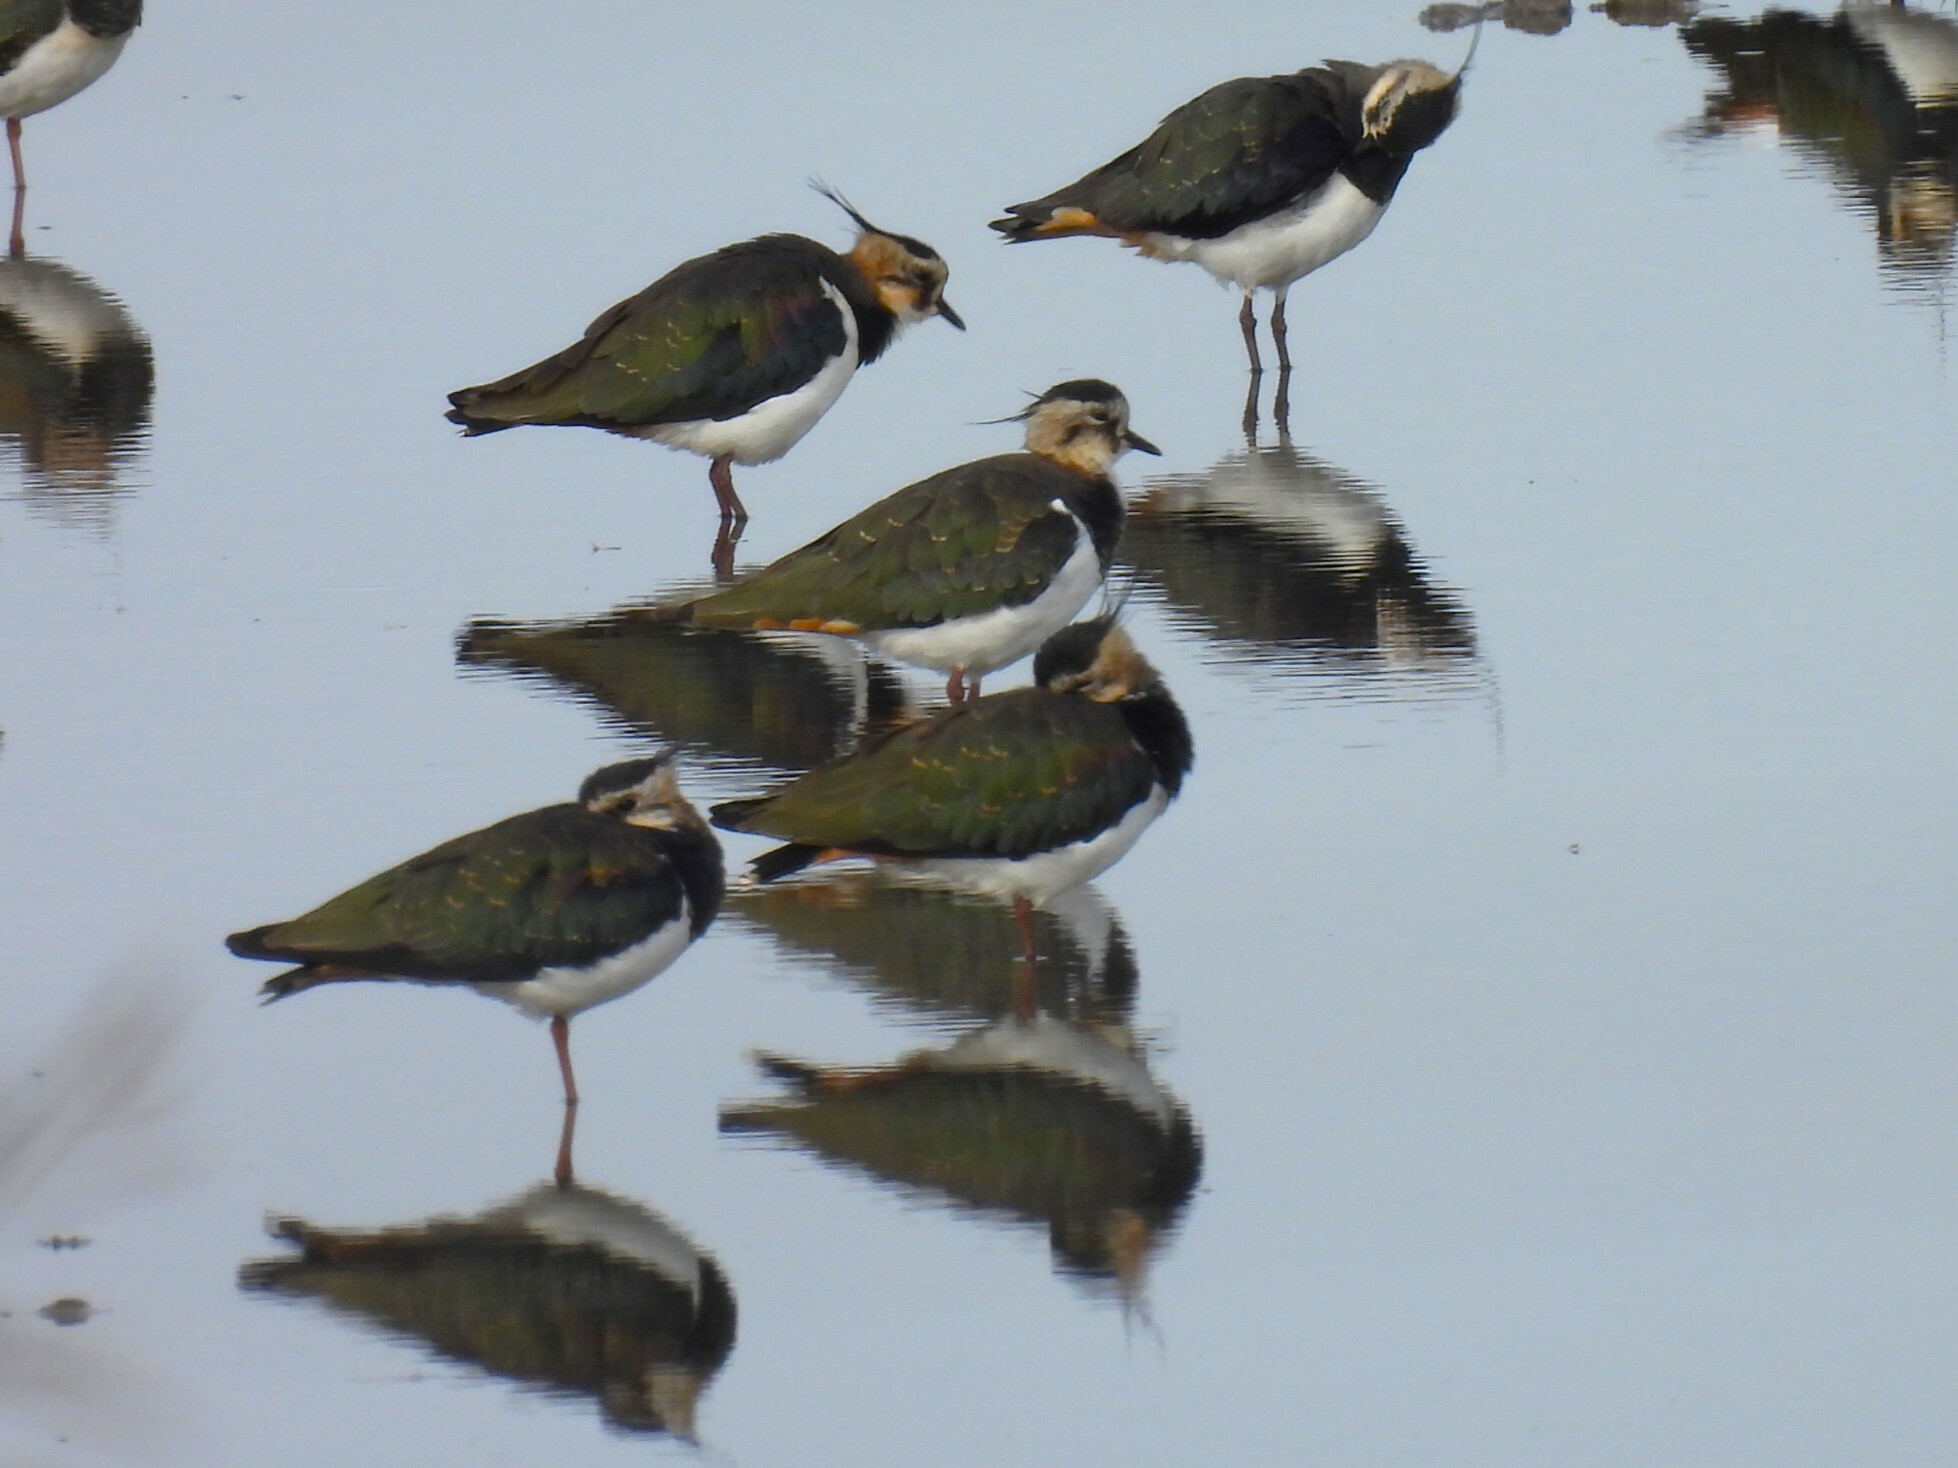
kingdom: Animalia
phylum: Chordata
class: Aves
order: Charadriiformes
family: Charadriidae
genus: Vanellus
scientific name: Vanellus vanellus
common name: Northern lapwing
